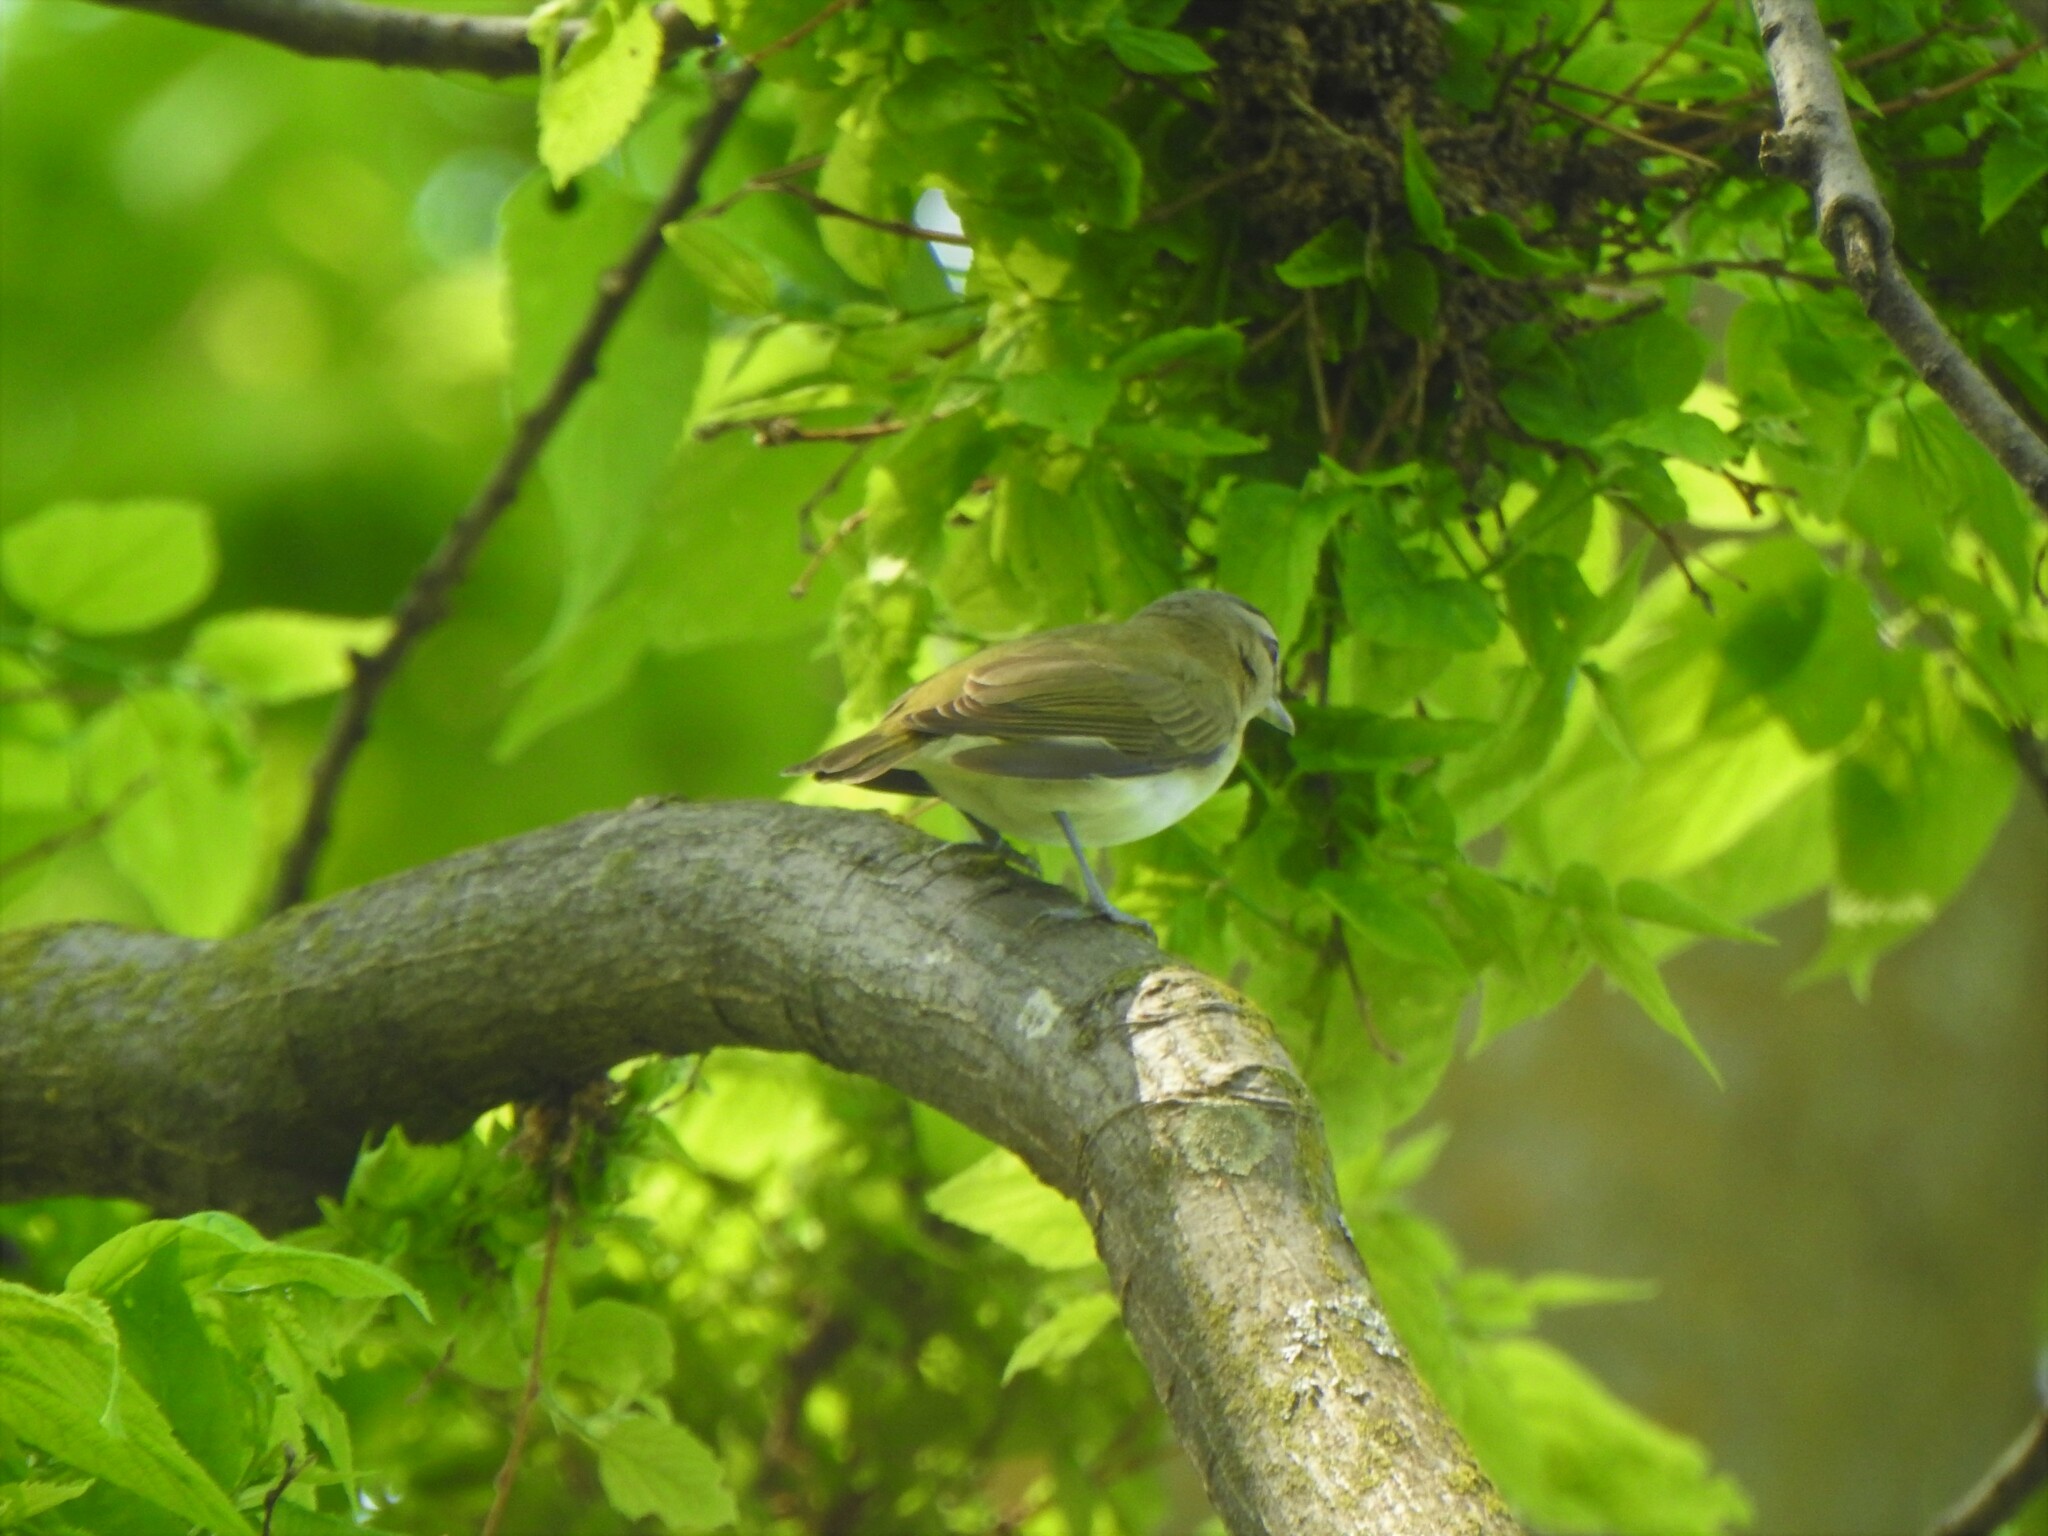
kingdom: Animalia
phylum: Chordata
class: Aves
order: Passeriformes
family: Vireonidae
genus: Vireo
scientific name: Vireo olivaceus
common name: Red-eyed vireo
